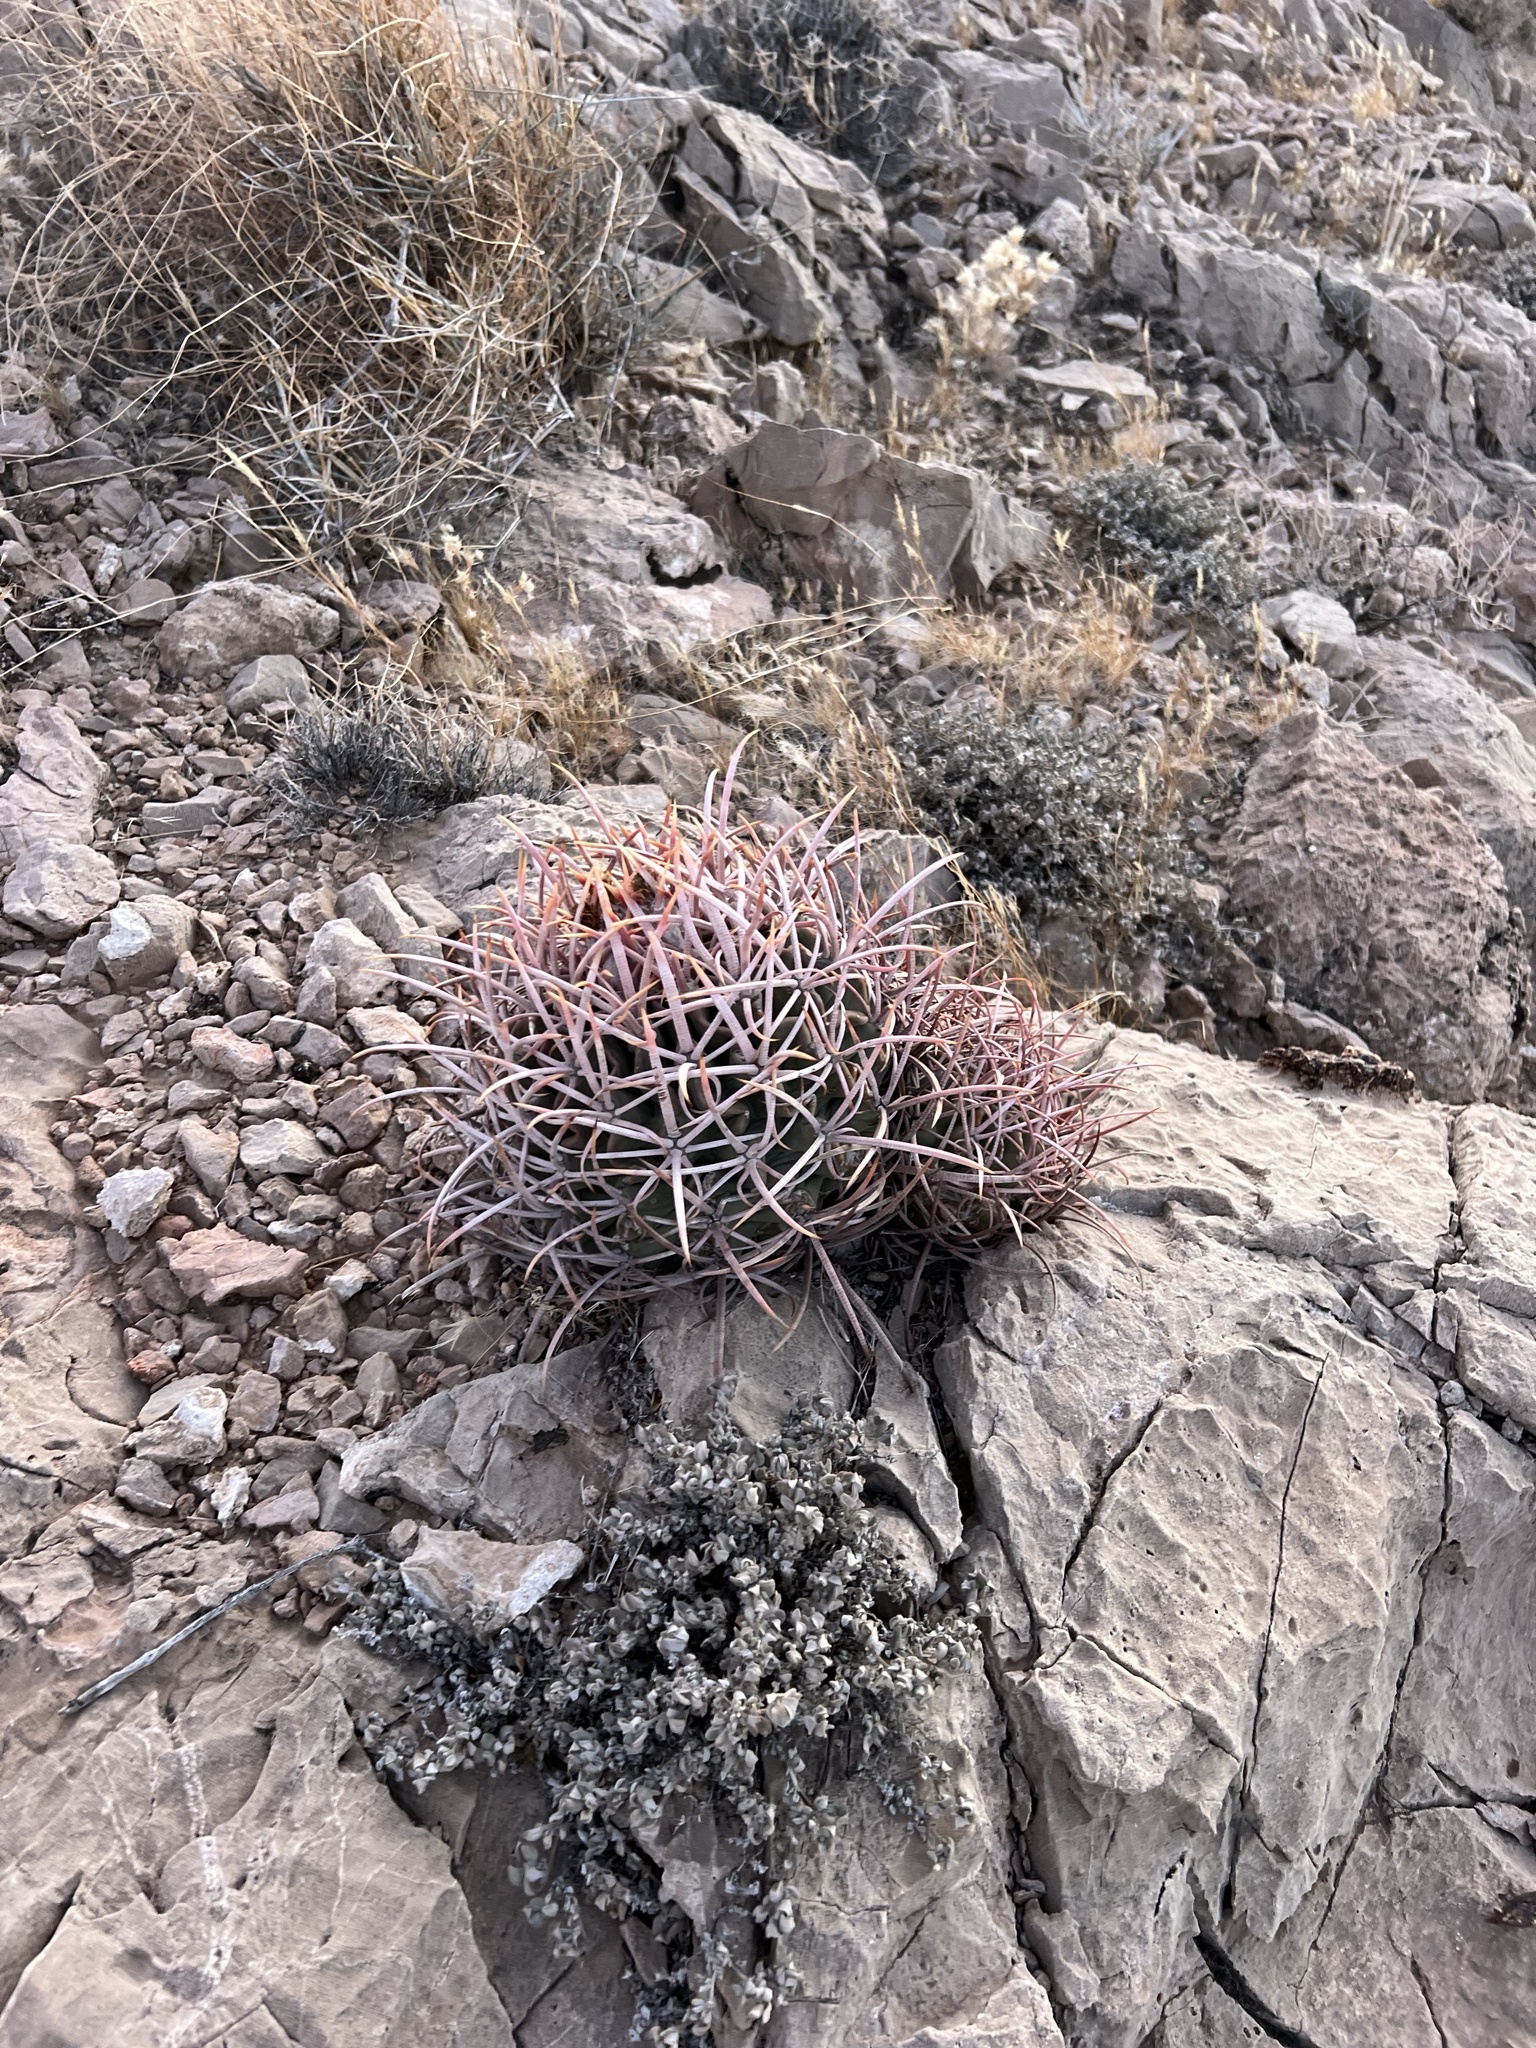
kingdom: Plantae
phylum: Tracheophyta
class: Magnoliopsida
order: Caryophyllales
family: Cactaceae
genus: Echinocactus
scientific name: Echinocactus polycephalus
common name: Cottontop cactus
